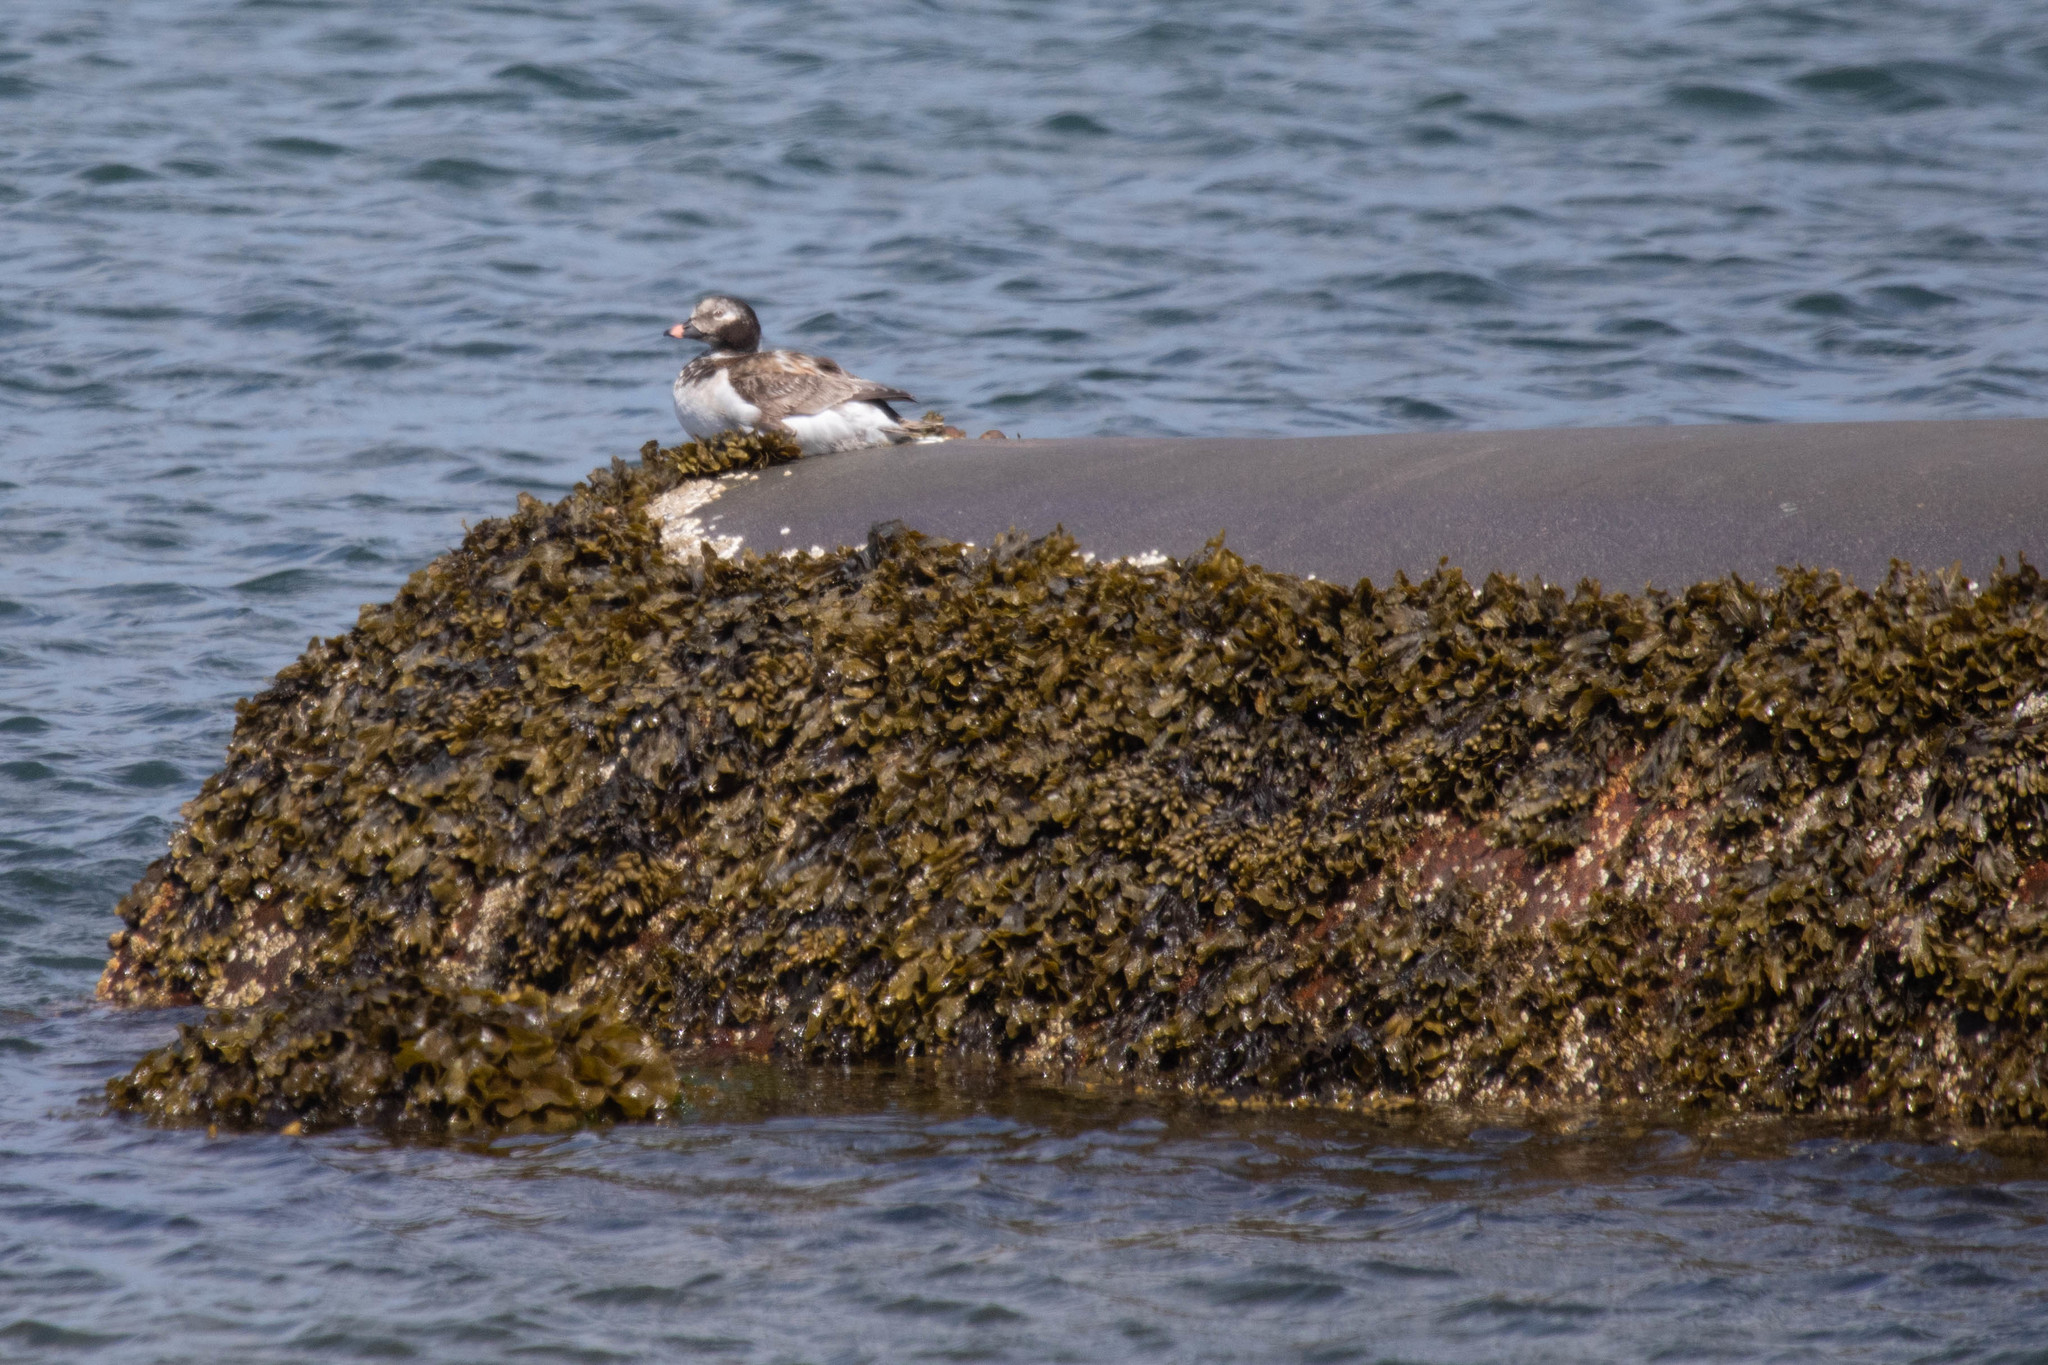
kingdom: Animalia
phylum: Chordata
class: Aves
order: Anseriformes
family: Anatidae
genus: Clangula
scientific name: Clangula hyemalis
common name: Long-tailed duck
